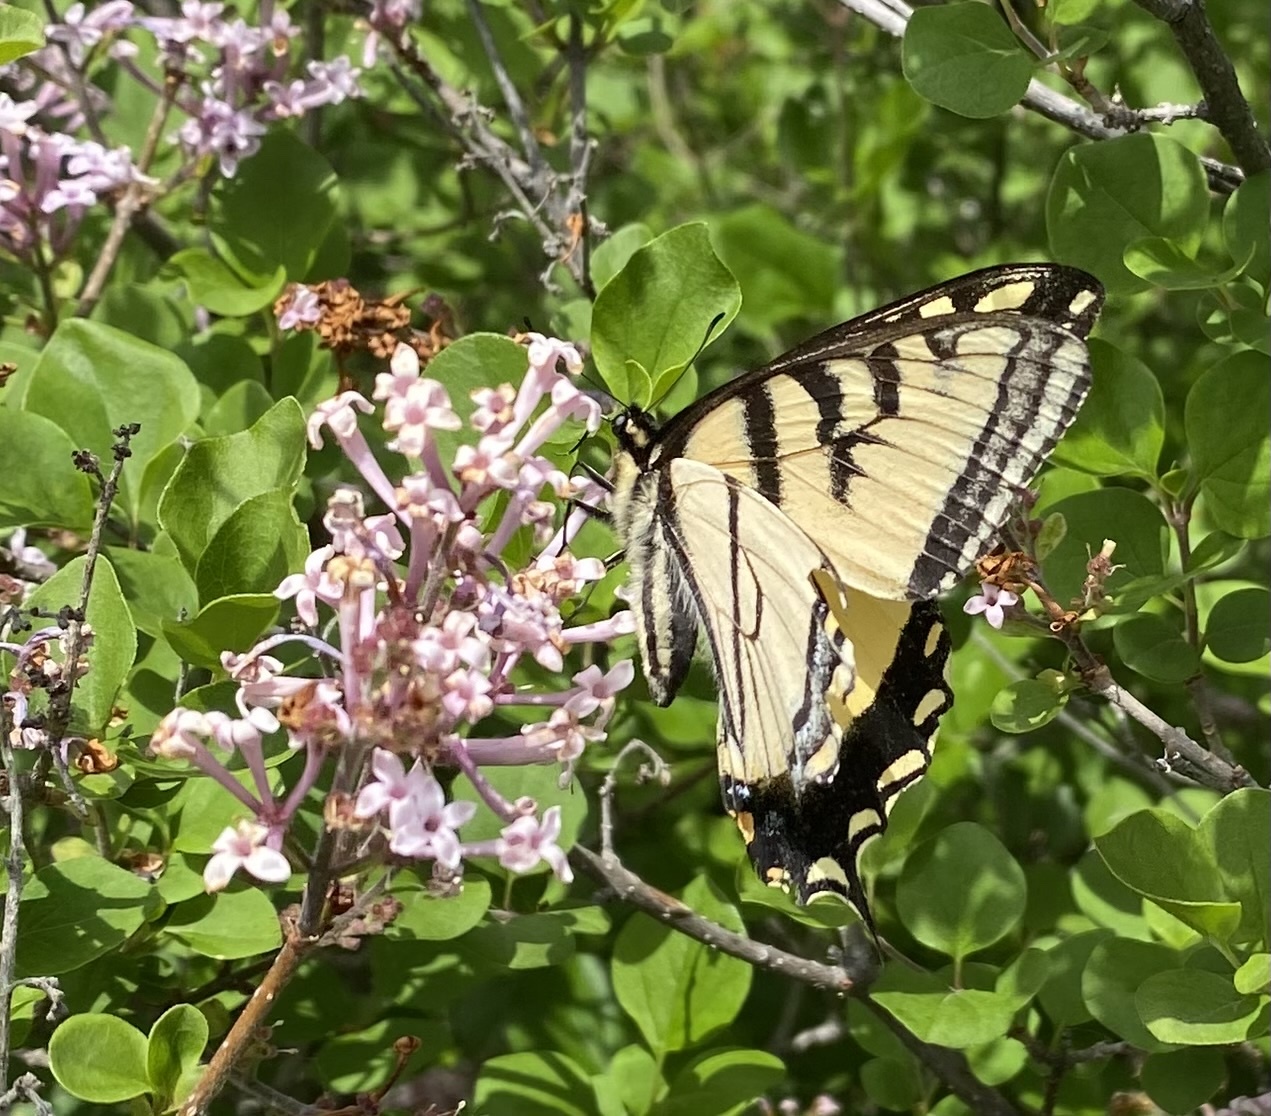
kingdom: Animalia
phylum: Arthropoda
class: Insecta
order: Lepidoptera
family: Papilionidae
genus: Papilio
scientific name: Papilio canadensis
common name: Canadian tiger swallowtail
